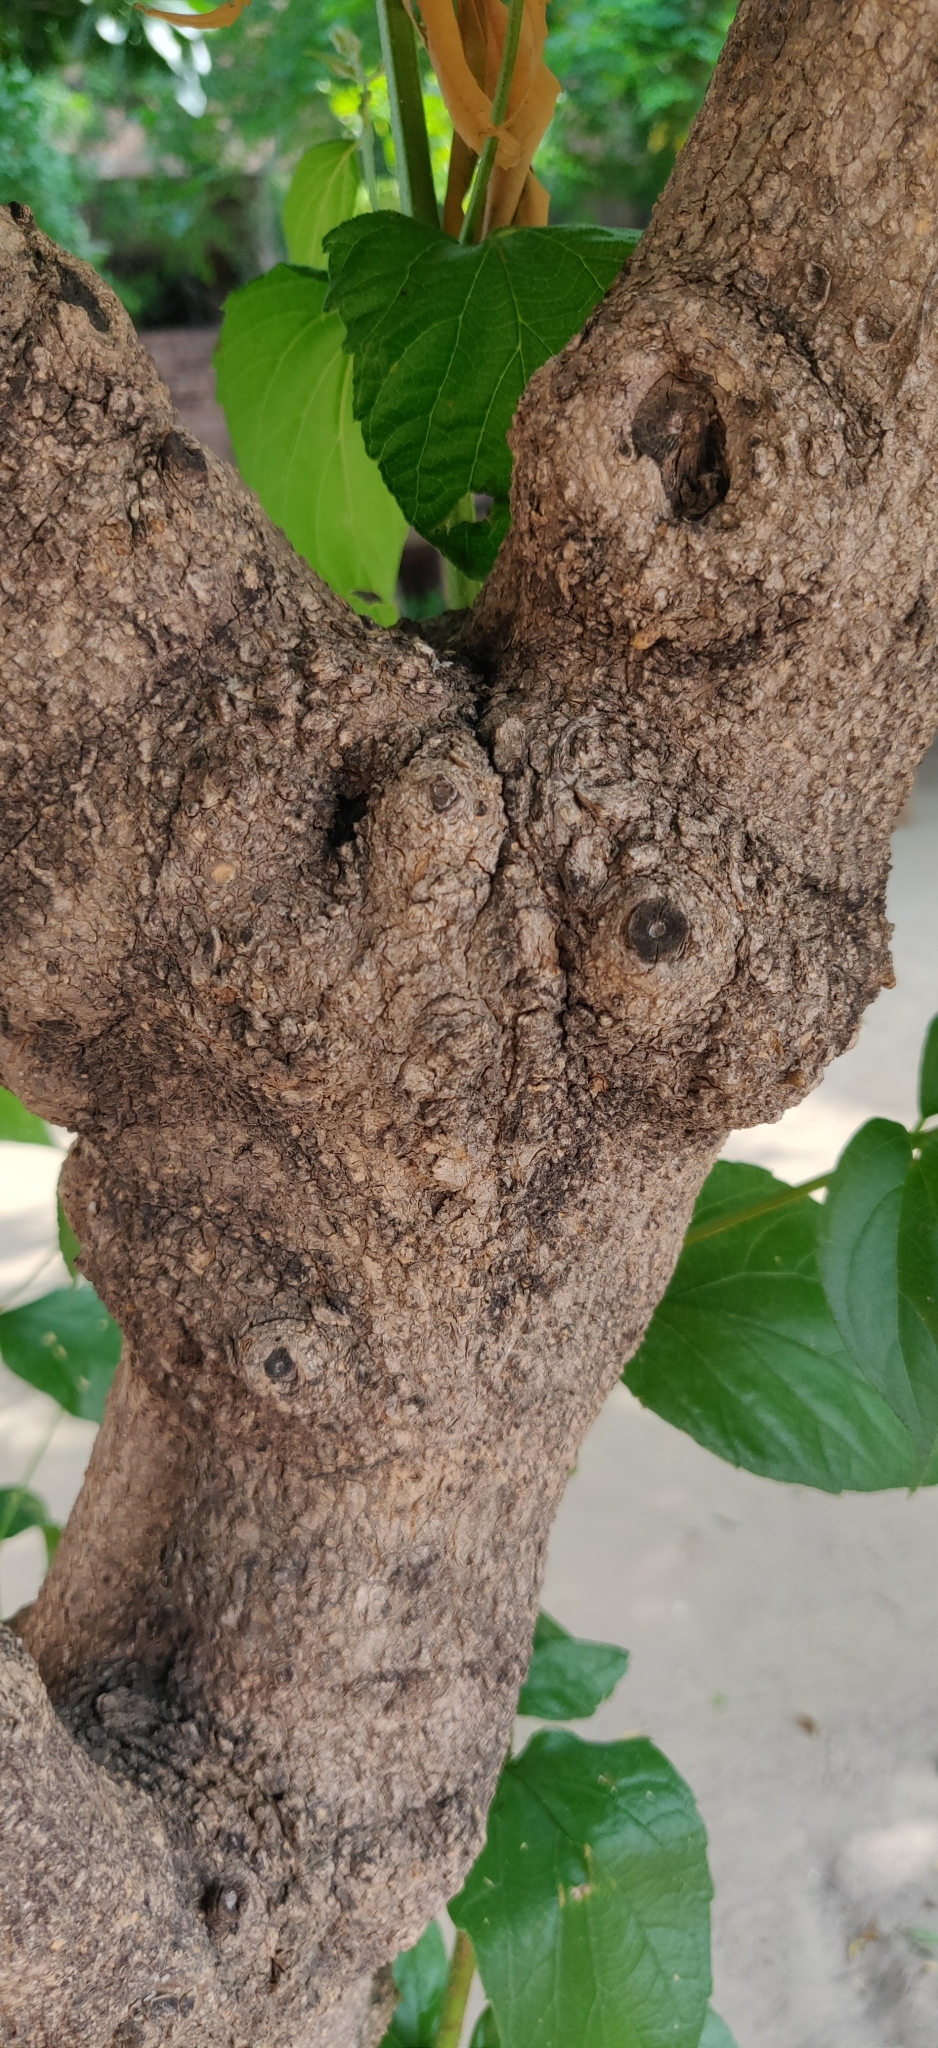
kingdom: Plantae
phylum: Tracheophyta
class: Magnoliopsida
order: Lamiales
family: Oleaceae
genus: Nyctanthes
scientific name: Nyctanthes arbor-tristis
